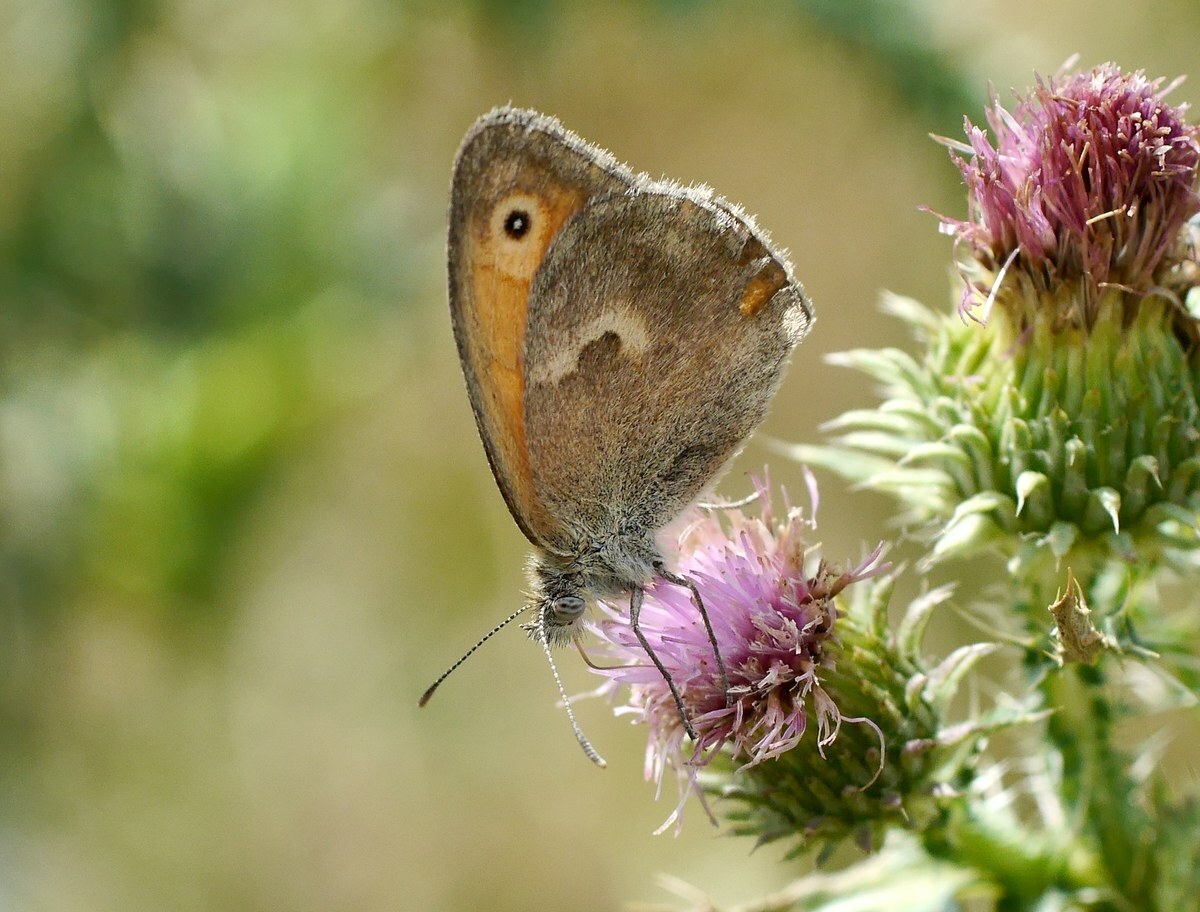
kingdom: Animalia
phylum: Arthropoda
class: Insecta
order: Lepidoptera
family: Nymphalidae
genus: Coenonympha
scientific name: Coenonympha pamphilus
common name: Small heath
